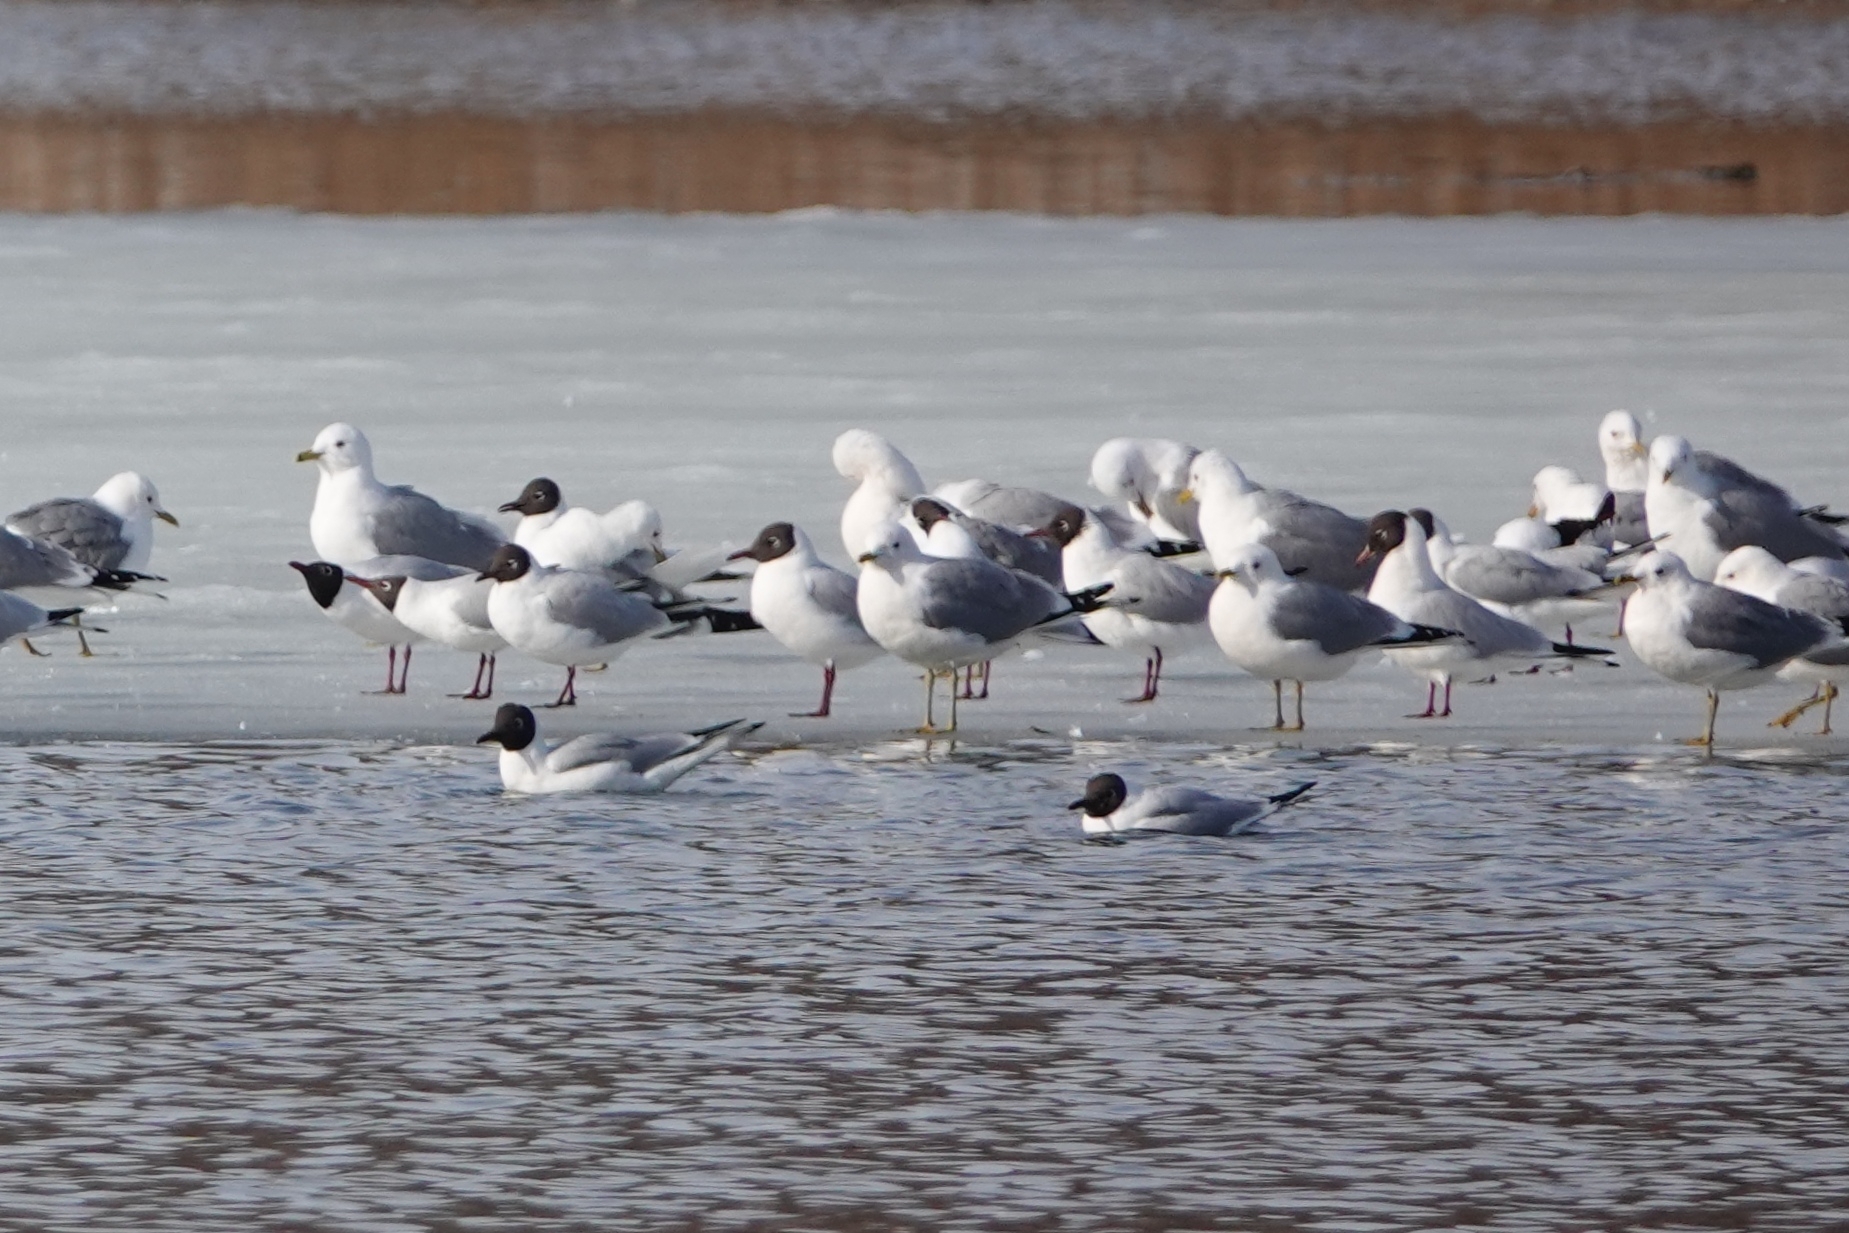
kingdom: Animalia
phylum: Chordata
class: Aves
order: Charadriiformes
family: Laridae
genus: Chroicocephalus
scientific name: Chroicocephalus ridibundus
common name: Black-headed gull
